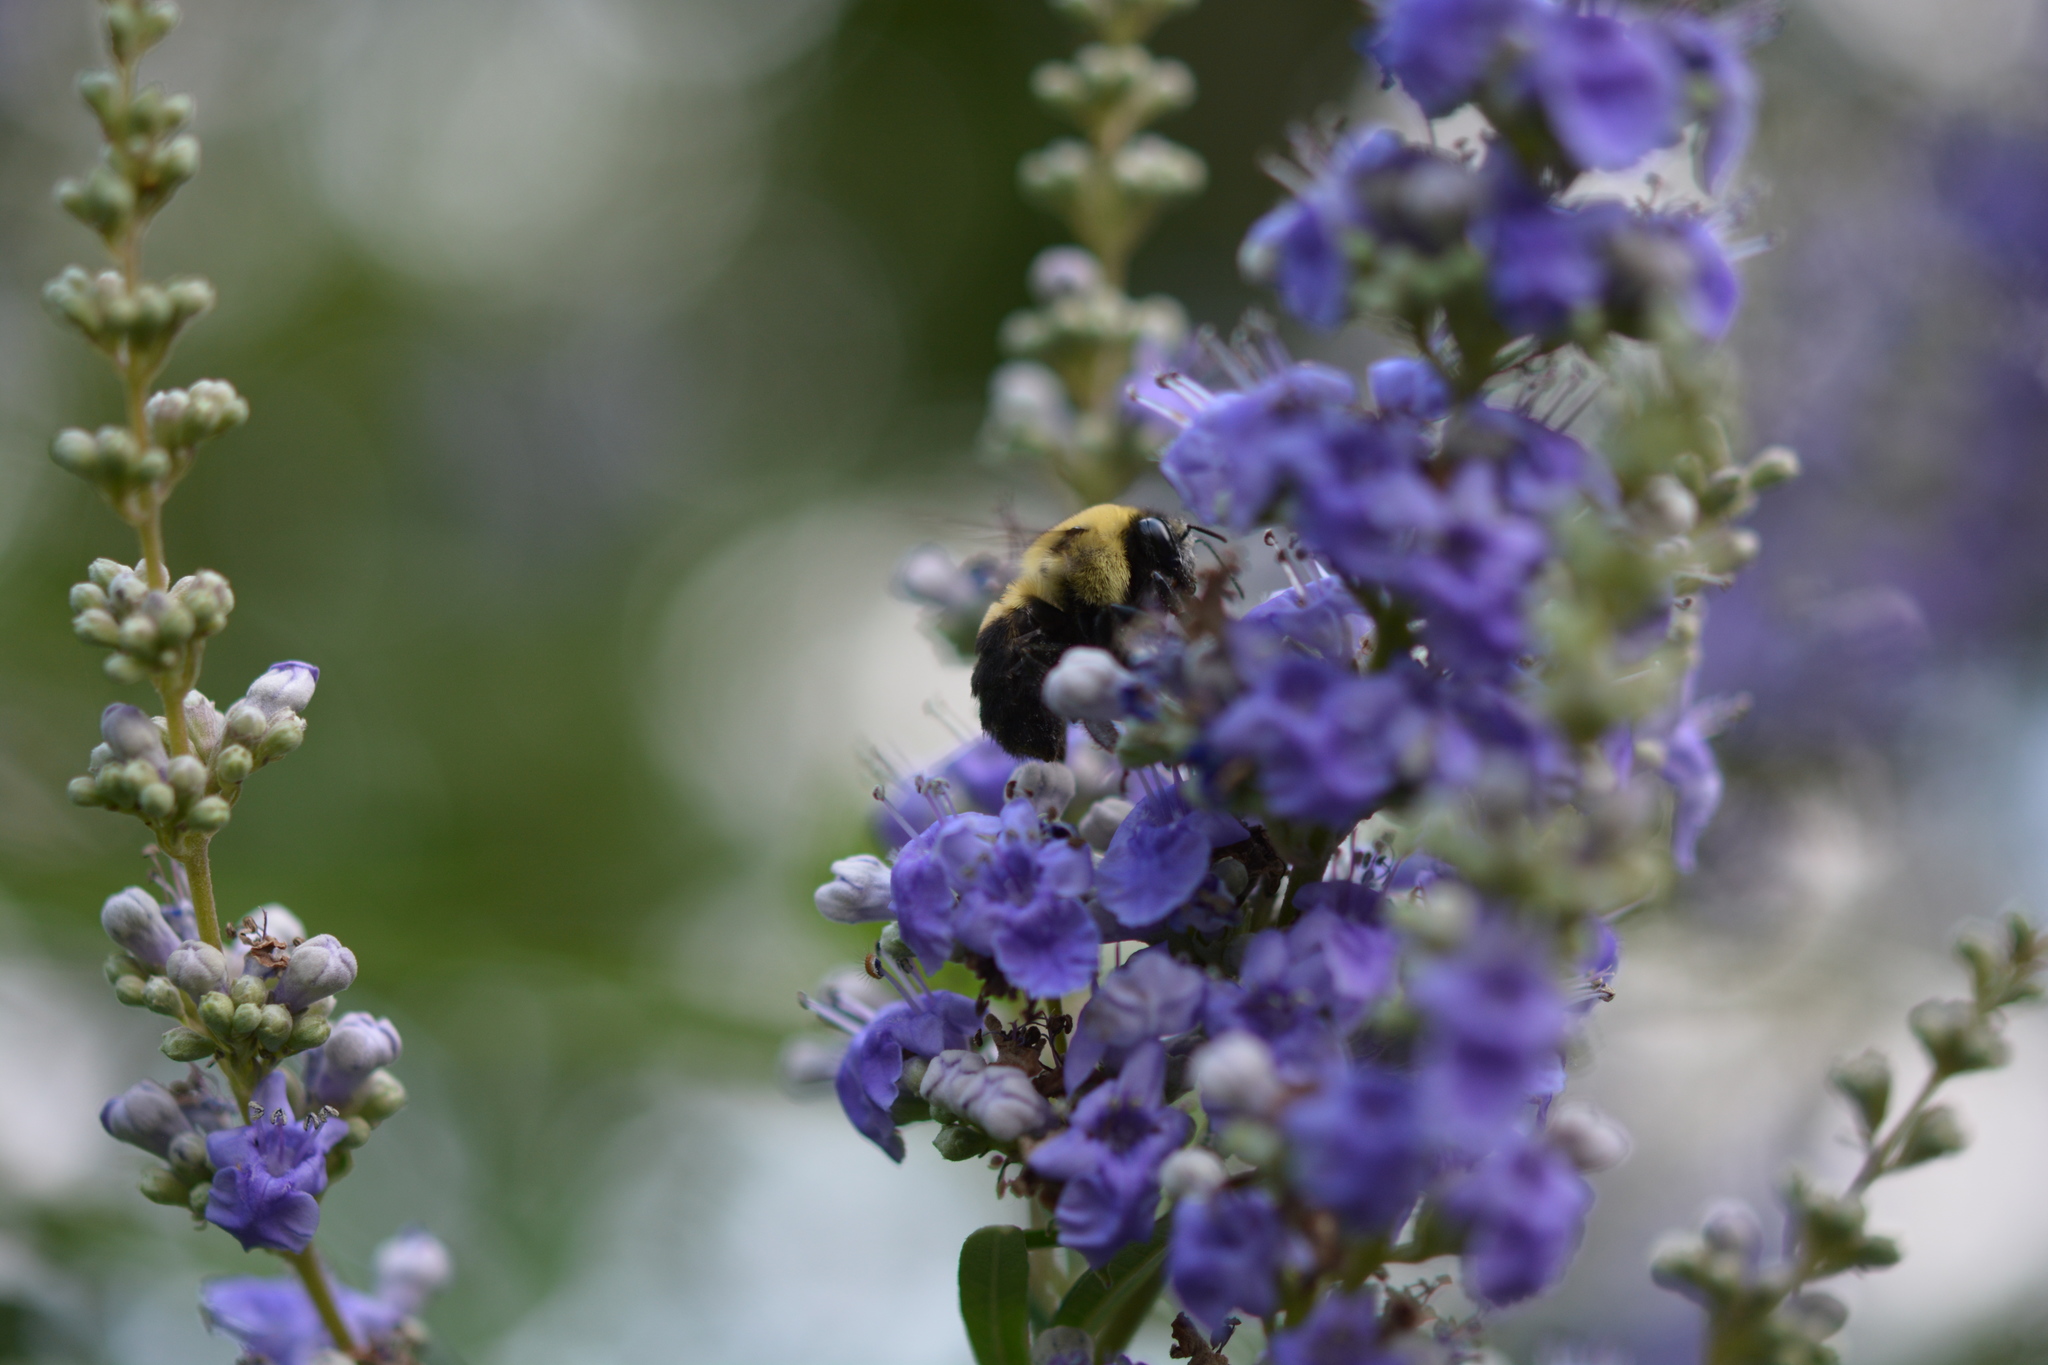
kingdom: Animalia
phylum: Arthropoda
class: Insecta
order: Hymenoptera
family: Apidae
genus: Bombus
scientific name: Bombus griseocollis
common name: Brown-belted bumble bee
